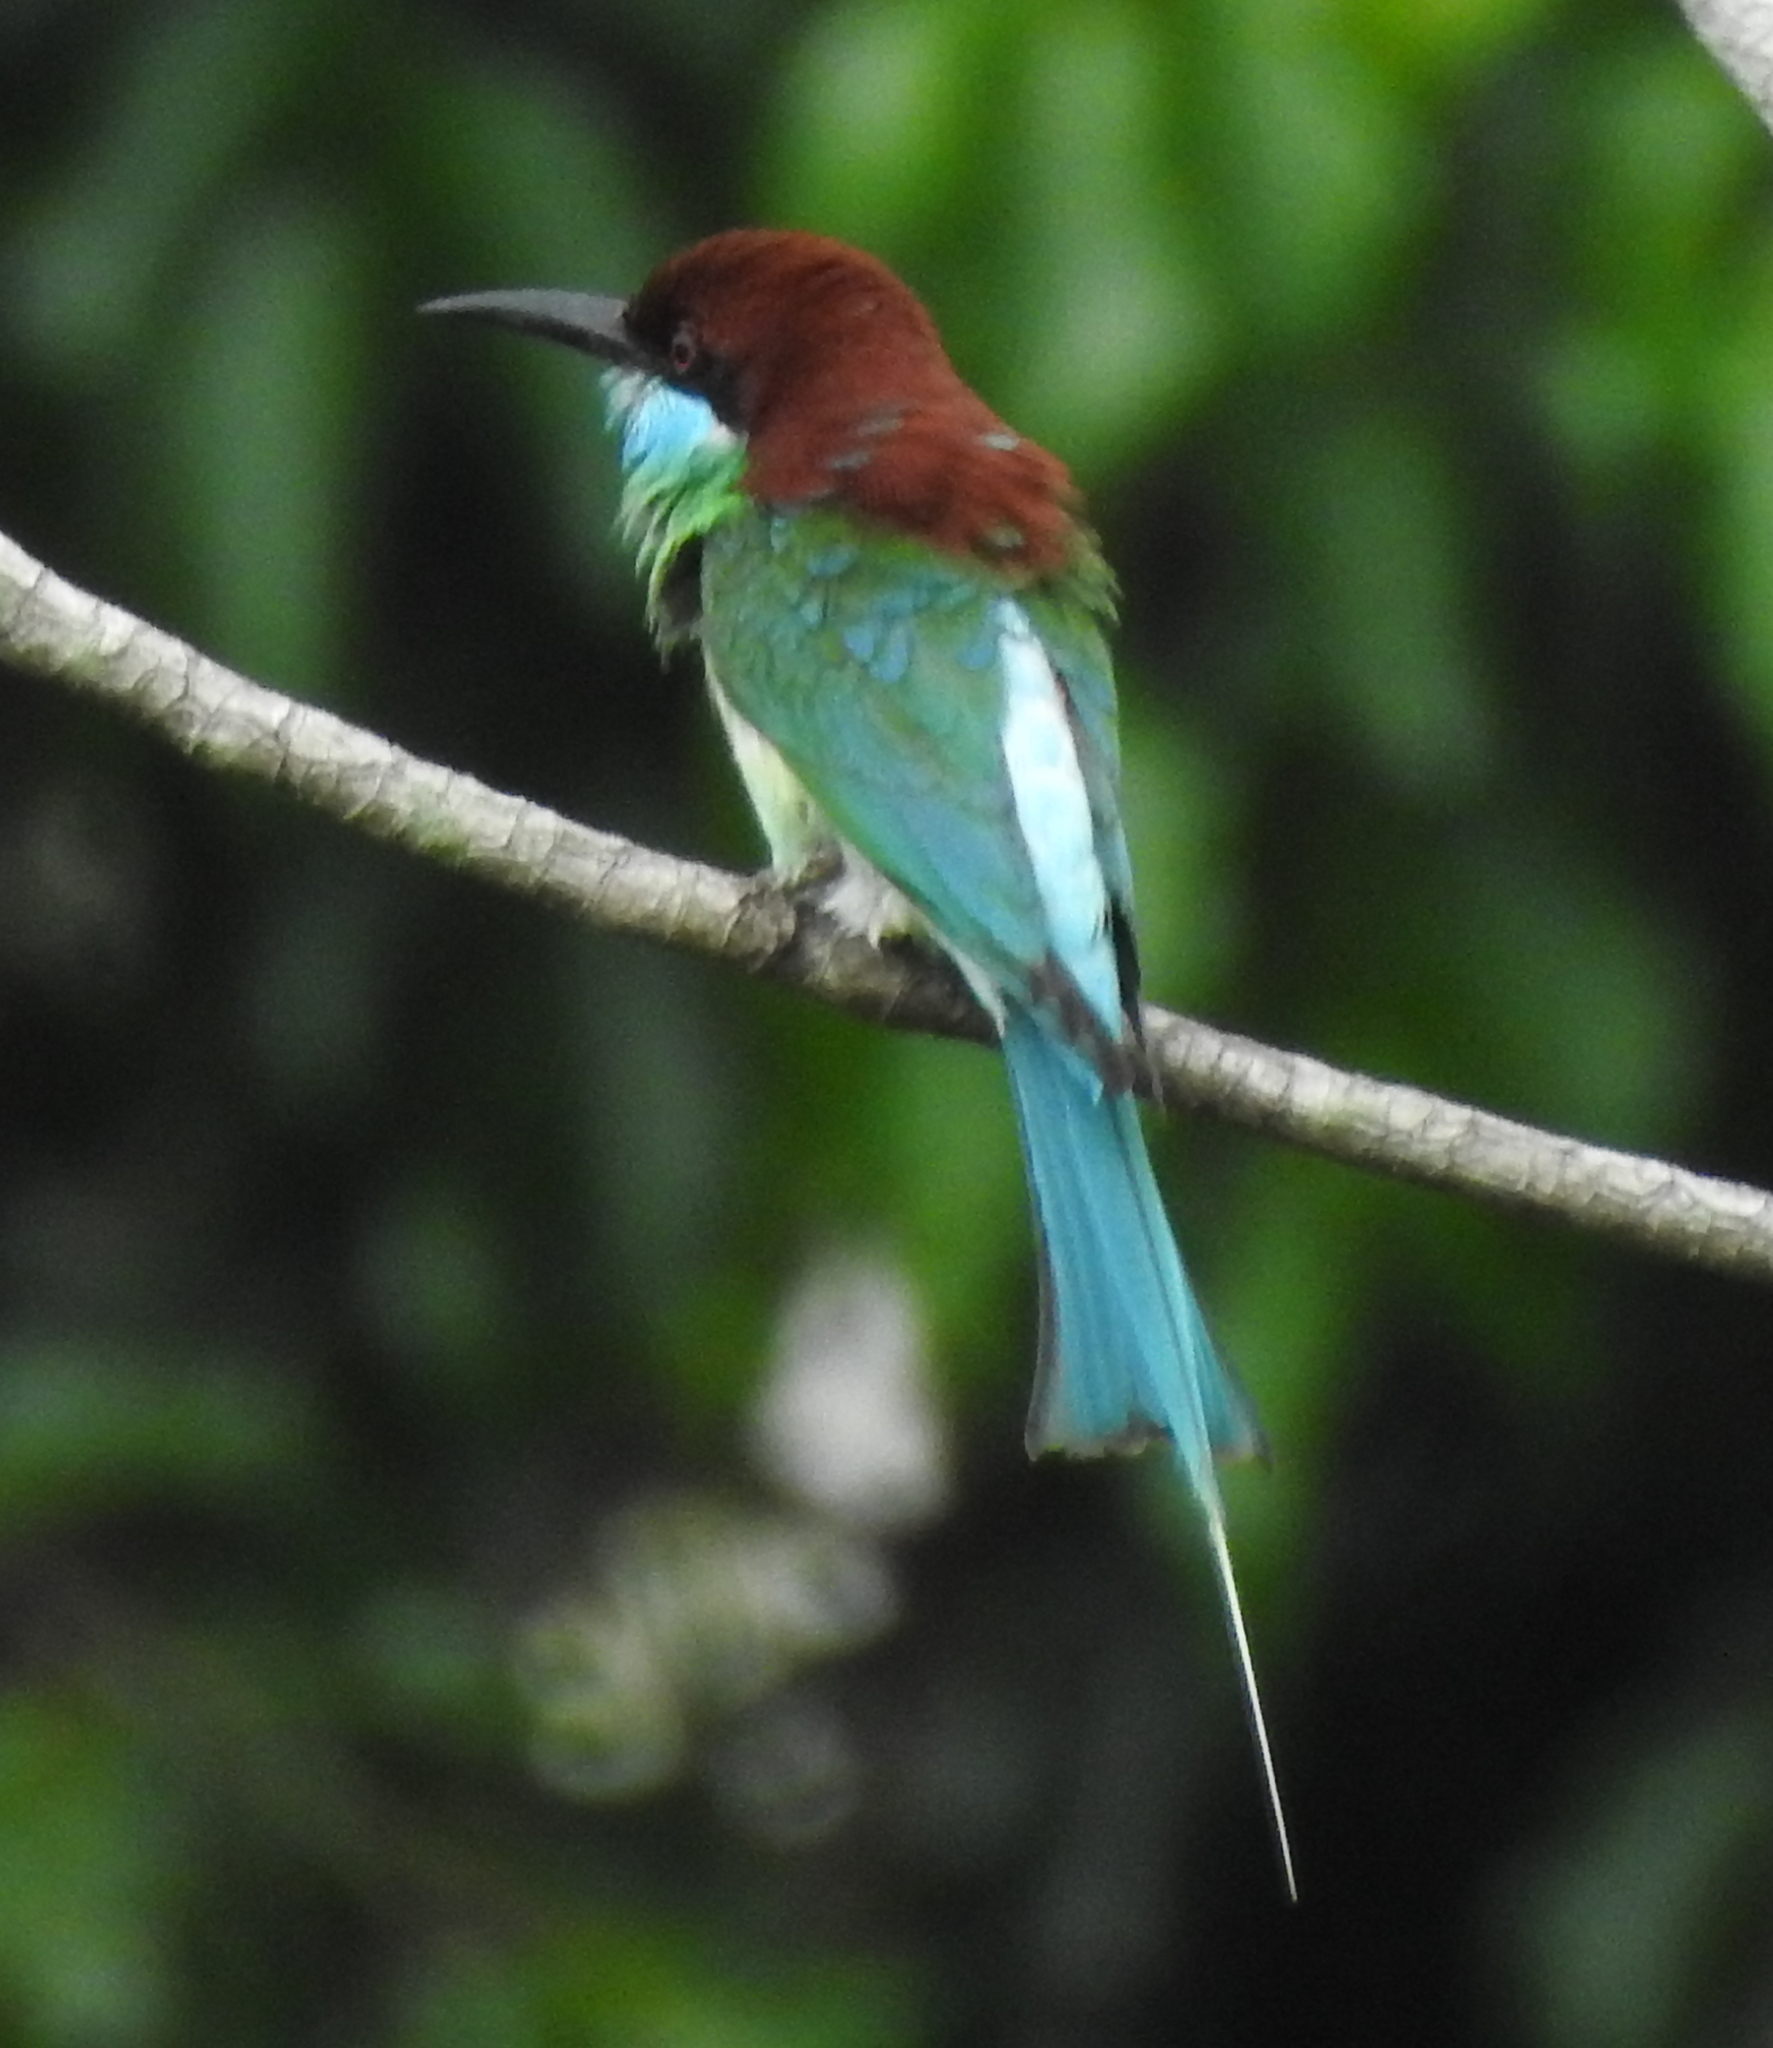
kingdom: Animalia
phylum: Chordata
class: Aves
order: Coraciiformes
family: Meropidae
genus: Merops
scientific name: Merops viridis
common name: Blue-throated bee-eater
